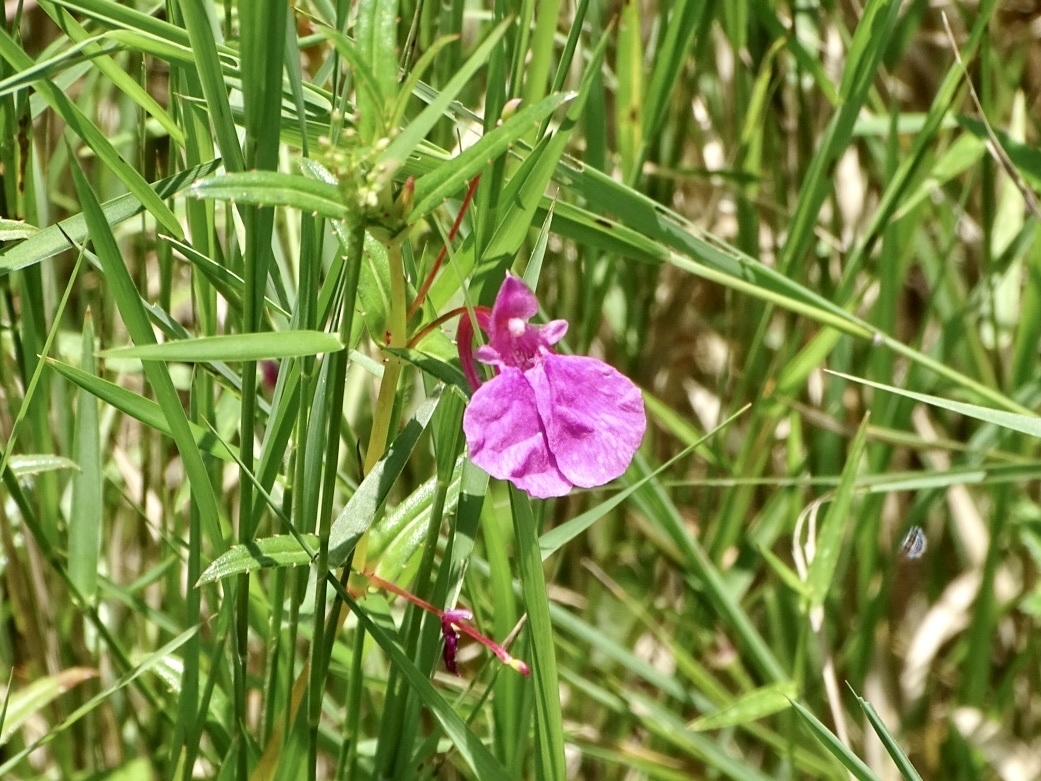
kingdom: Plantae
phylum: Tracheophyta
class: Magnoliopsida
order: Ericales
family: Balsaminaceae
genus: Impatiens
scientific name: Impatiens chinensis
